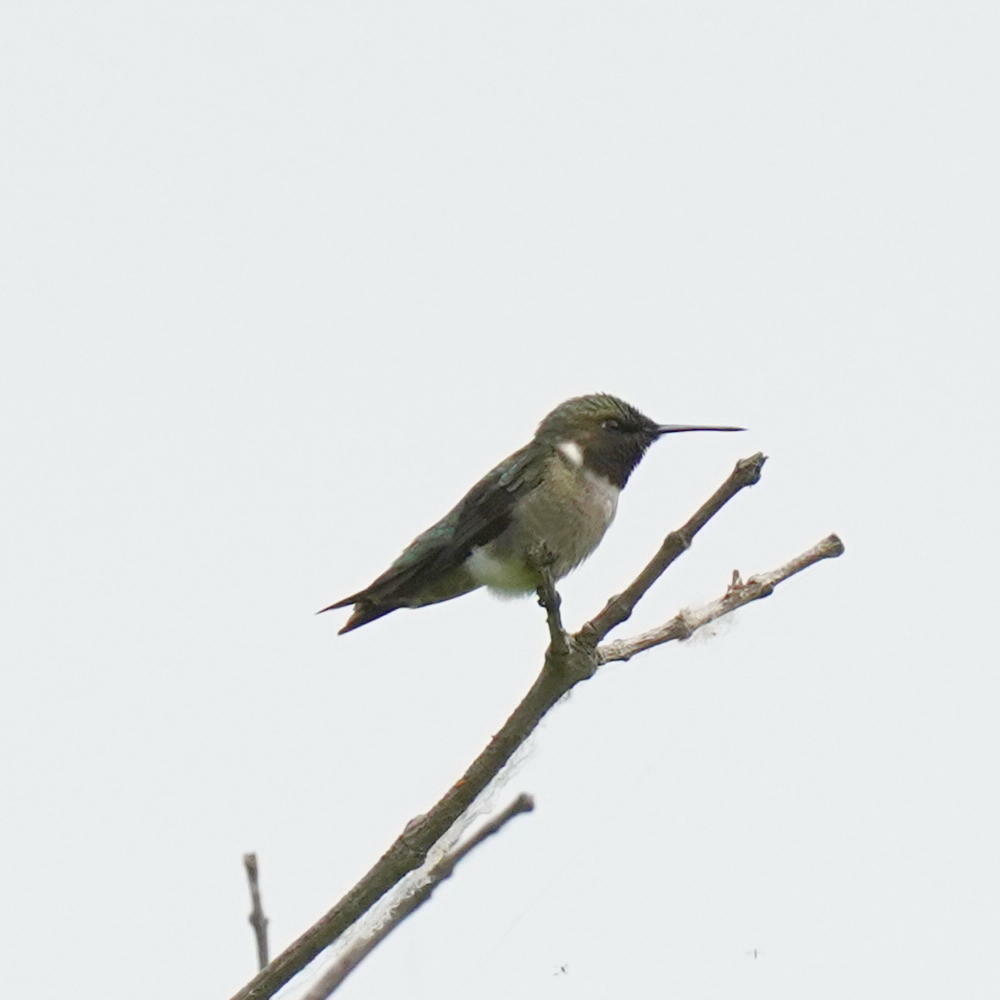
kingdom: Animalia
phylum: Chordata
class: Aves
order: Apodiformes
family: Trochilidae
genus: Archilochus
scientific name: Archilochus colubris
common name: Ruby-throated hummingbird
